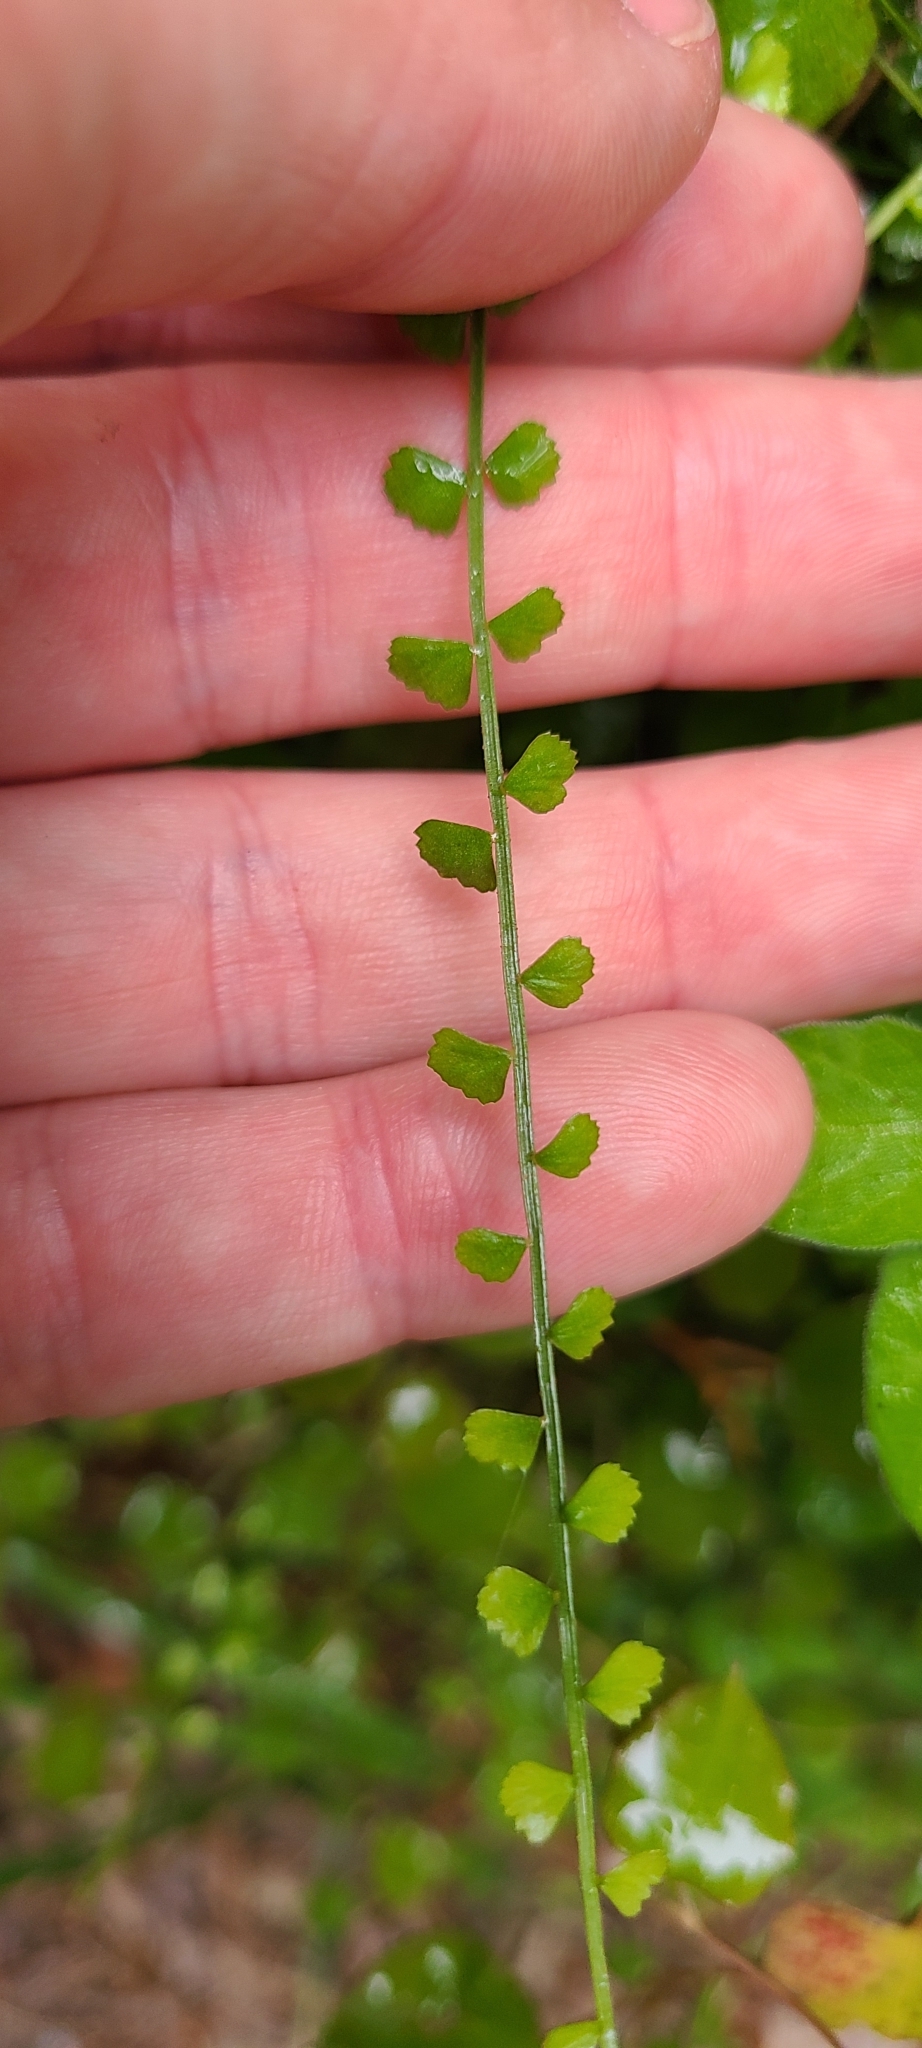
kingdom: Plantae
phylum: Tracheophyta
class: Polypodiopsida
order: Polypodiales
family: Aspleniaceae
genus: Asplenium
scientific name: Asplenium flabellifolium
